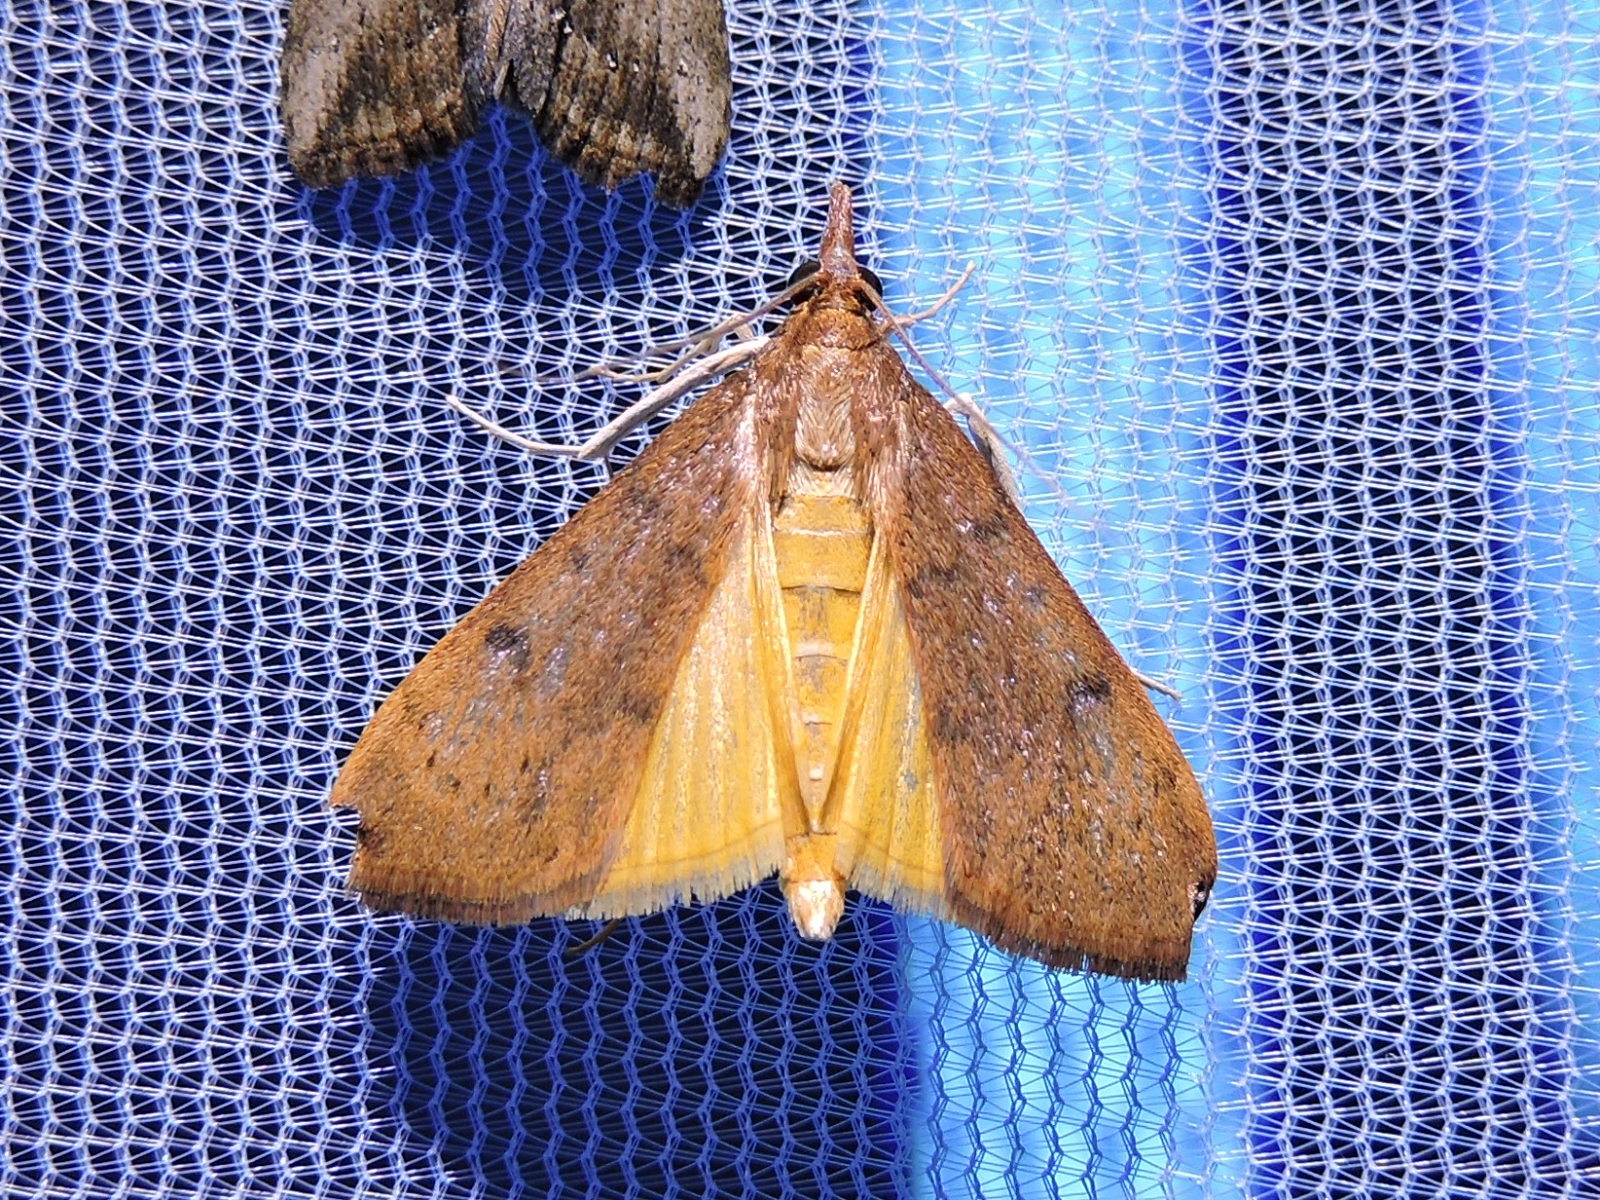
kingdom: Animalia
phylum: Arthropoda
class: Insecta
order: Lepidoptera
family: Crambidae
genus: Uresiphita
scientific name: Uresiphita reversalis
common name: Genista broom moth
